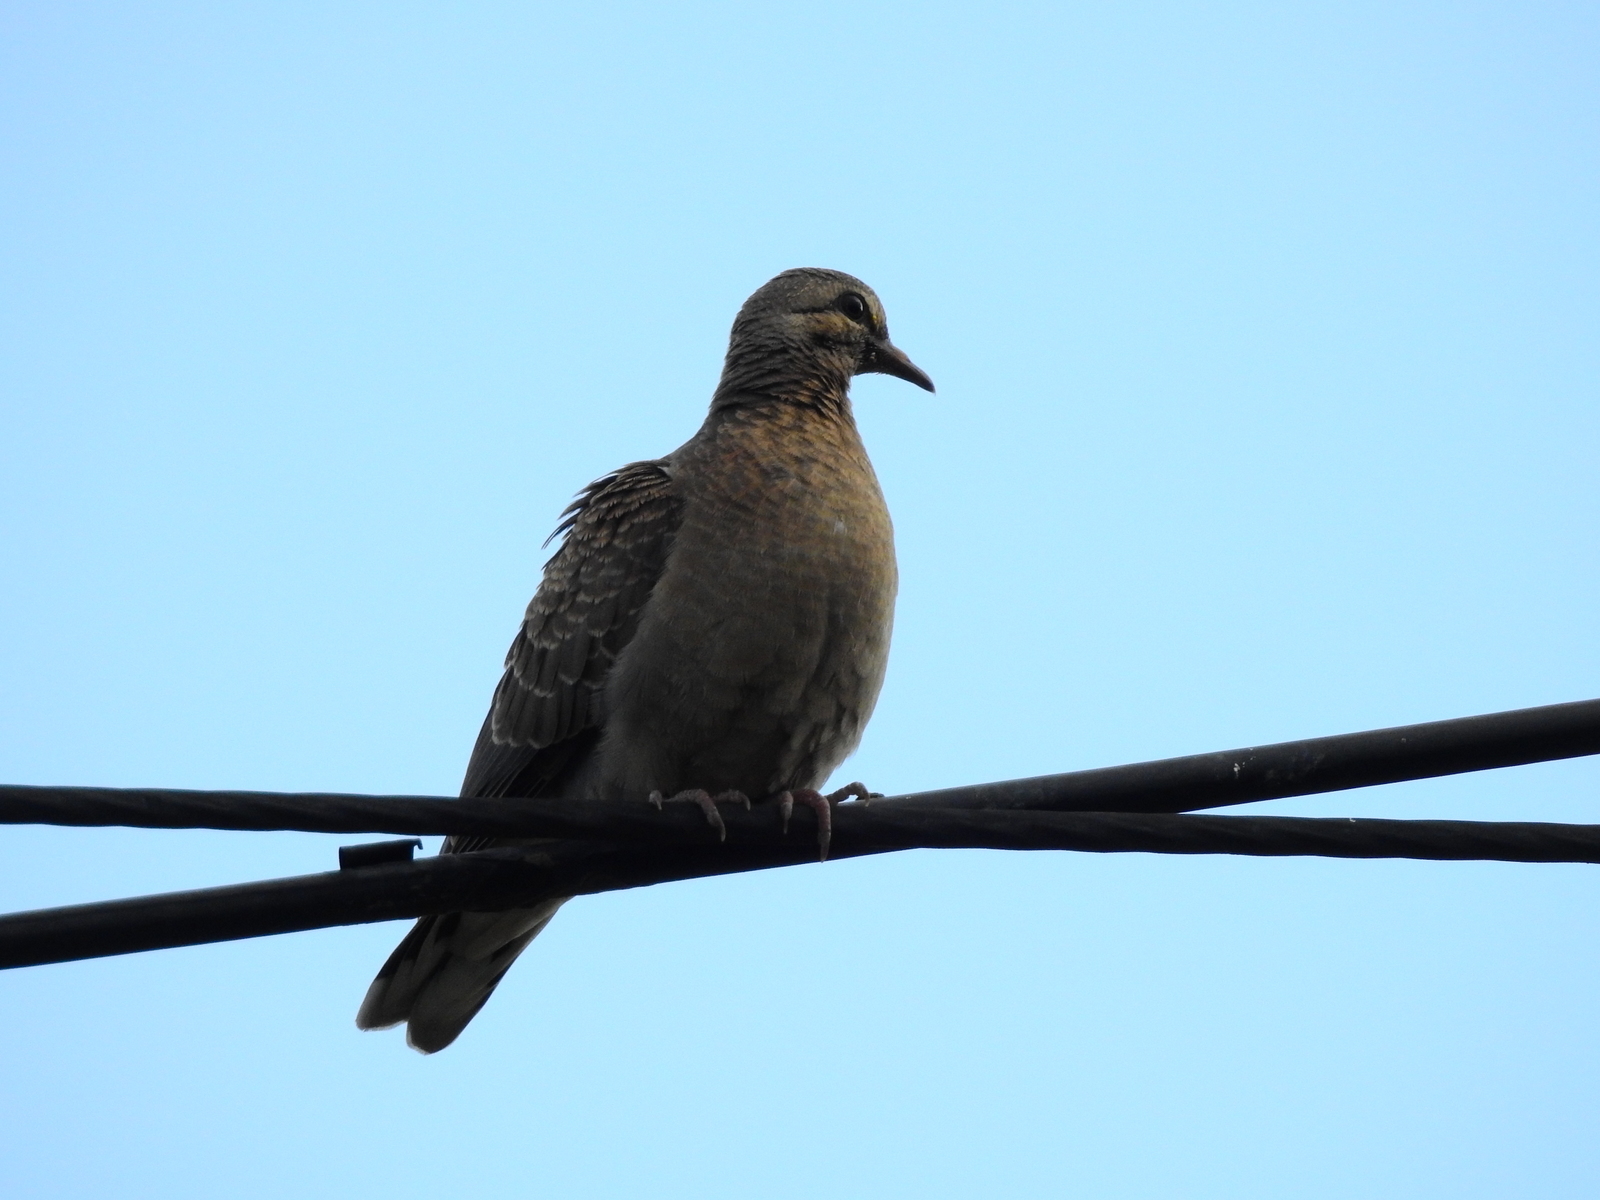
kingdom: Animalia
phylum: Chordata
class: Aves
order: Columbiformes
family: Columbidae
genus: Zenaida
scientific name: Zenaida auriculata
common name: Eared dove
